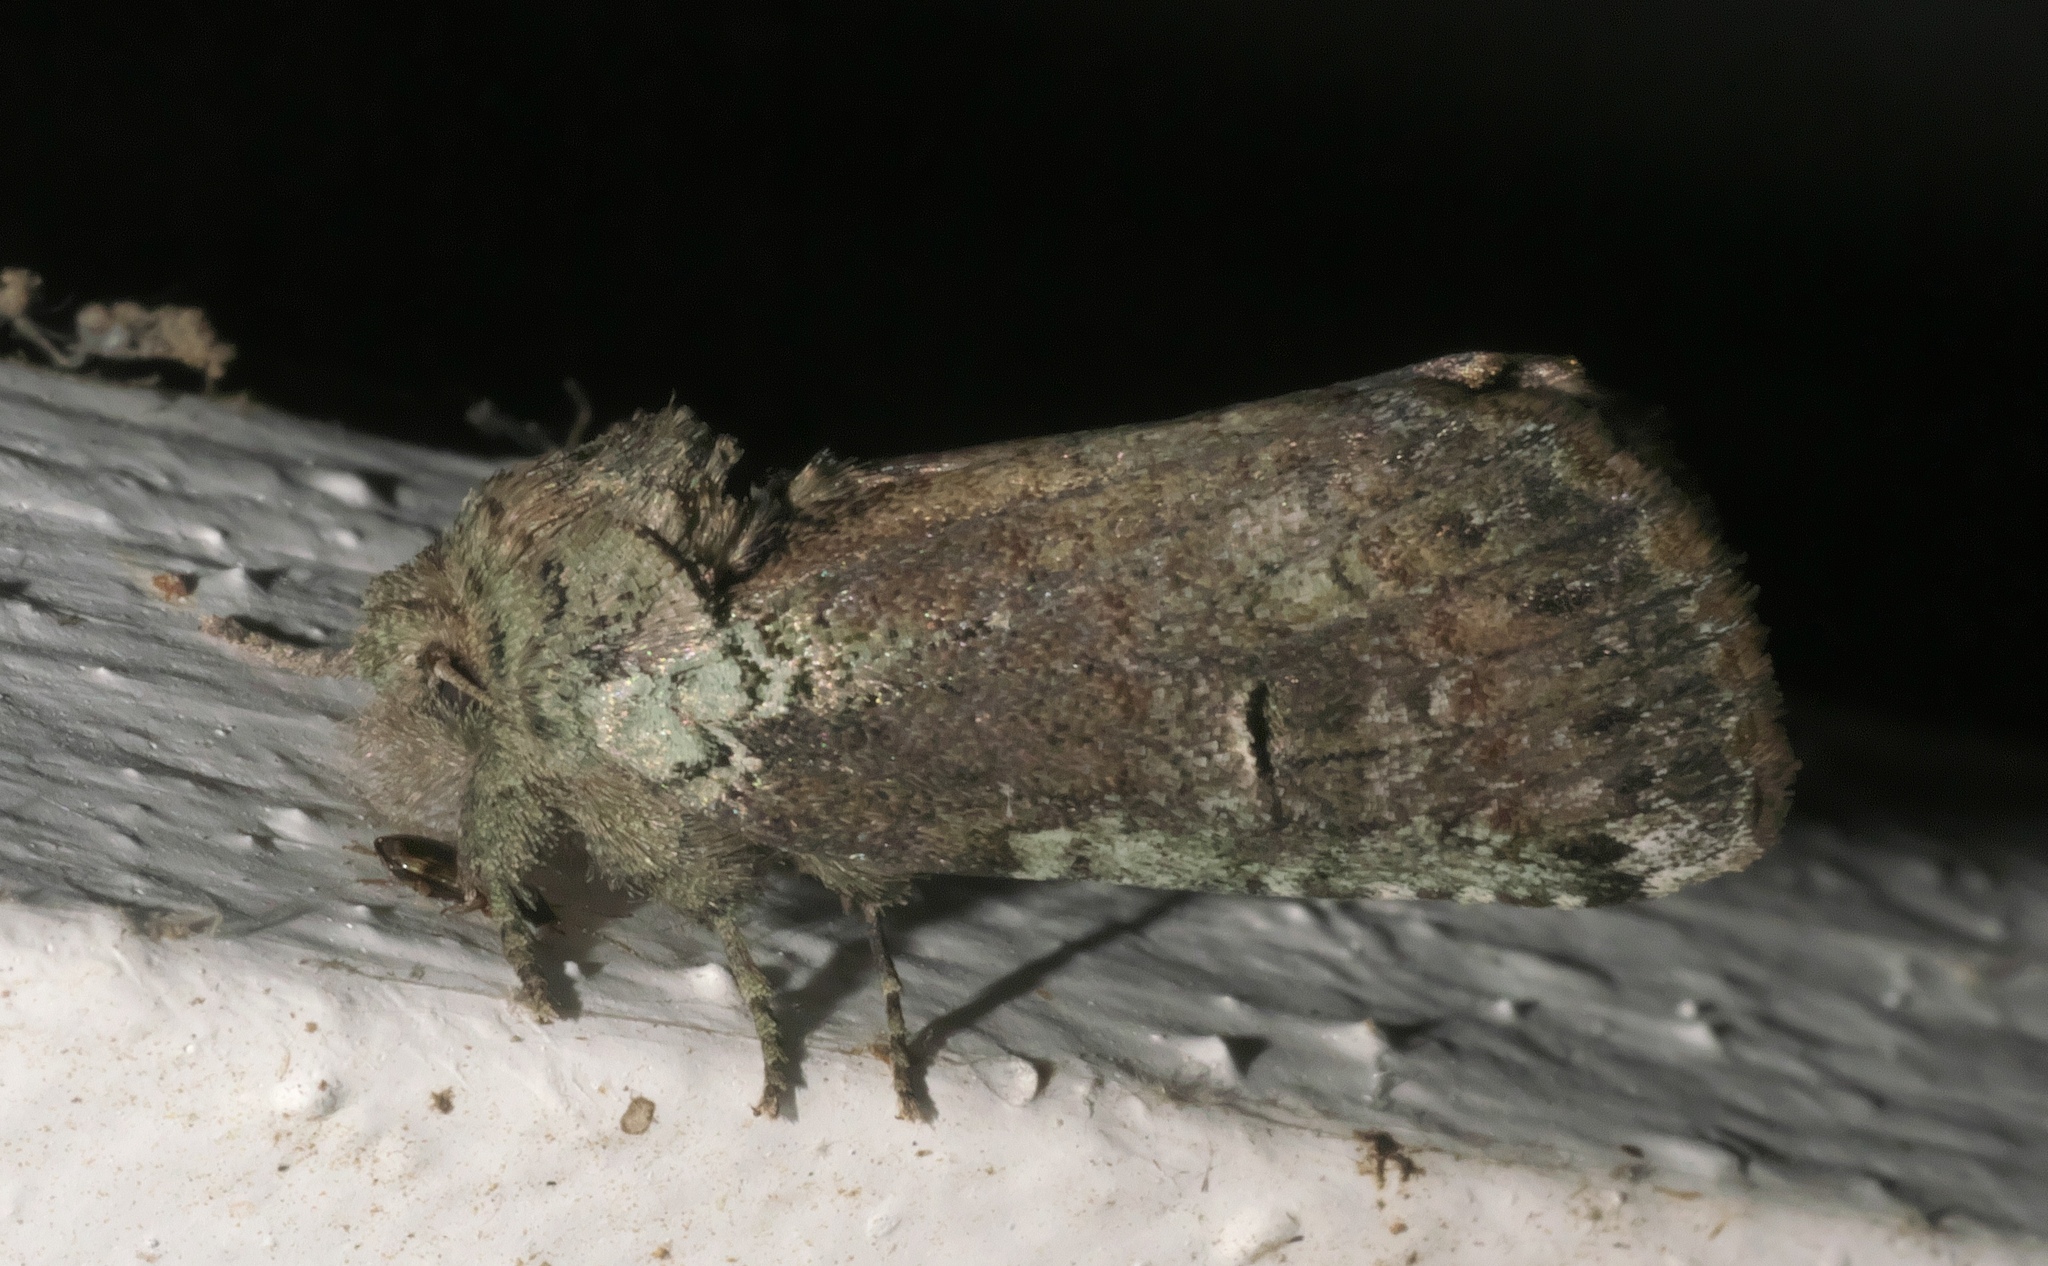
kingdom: Animalia
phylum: Arthropoda
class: Insecta
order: Lepidoptera
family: Notodontidae
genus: Schizura
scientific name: Schizura
